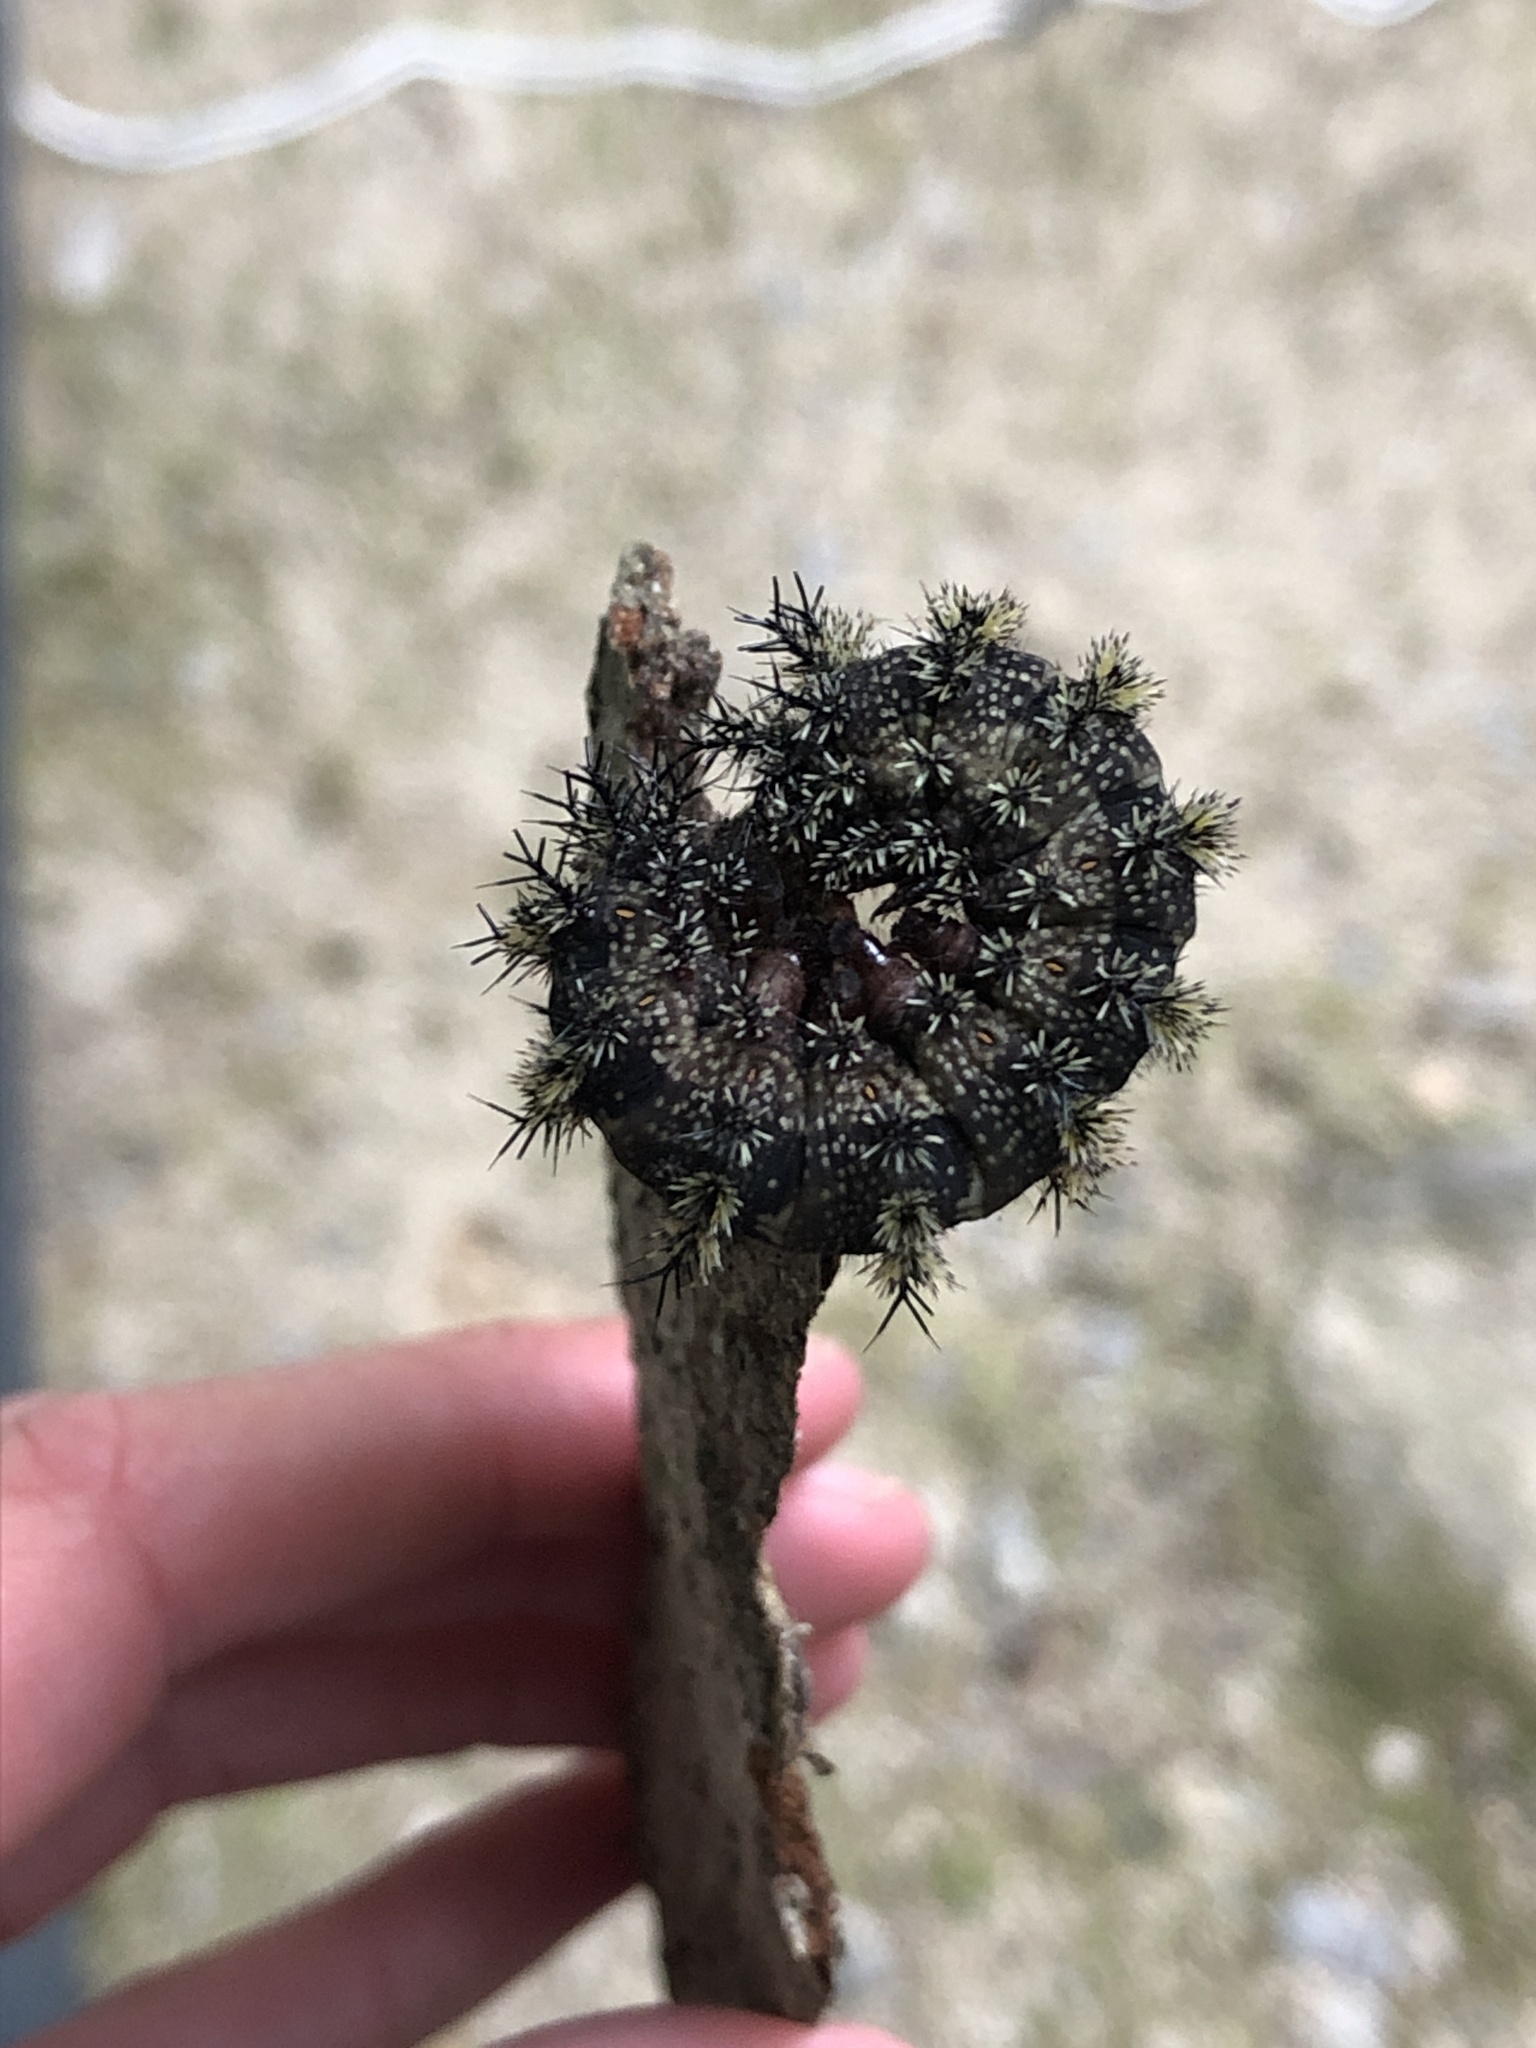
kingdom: Animalia
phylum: Arthropoda
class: Insecta
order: Lepidoptera
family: Saturniidae
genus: Hemileuca
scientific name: Hemileuca maia
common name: Eastern buckmoth
